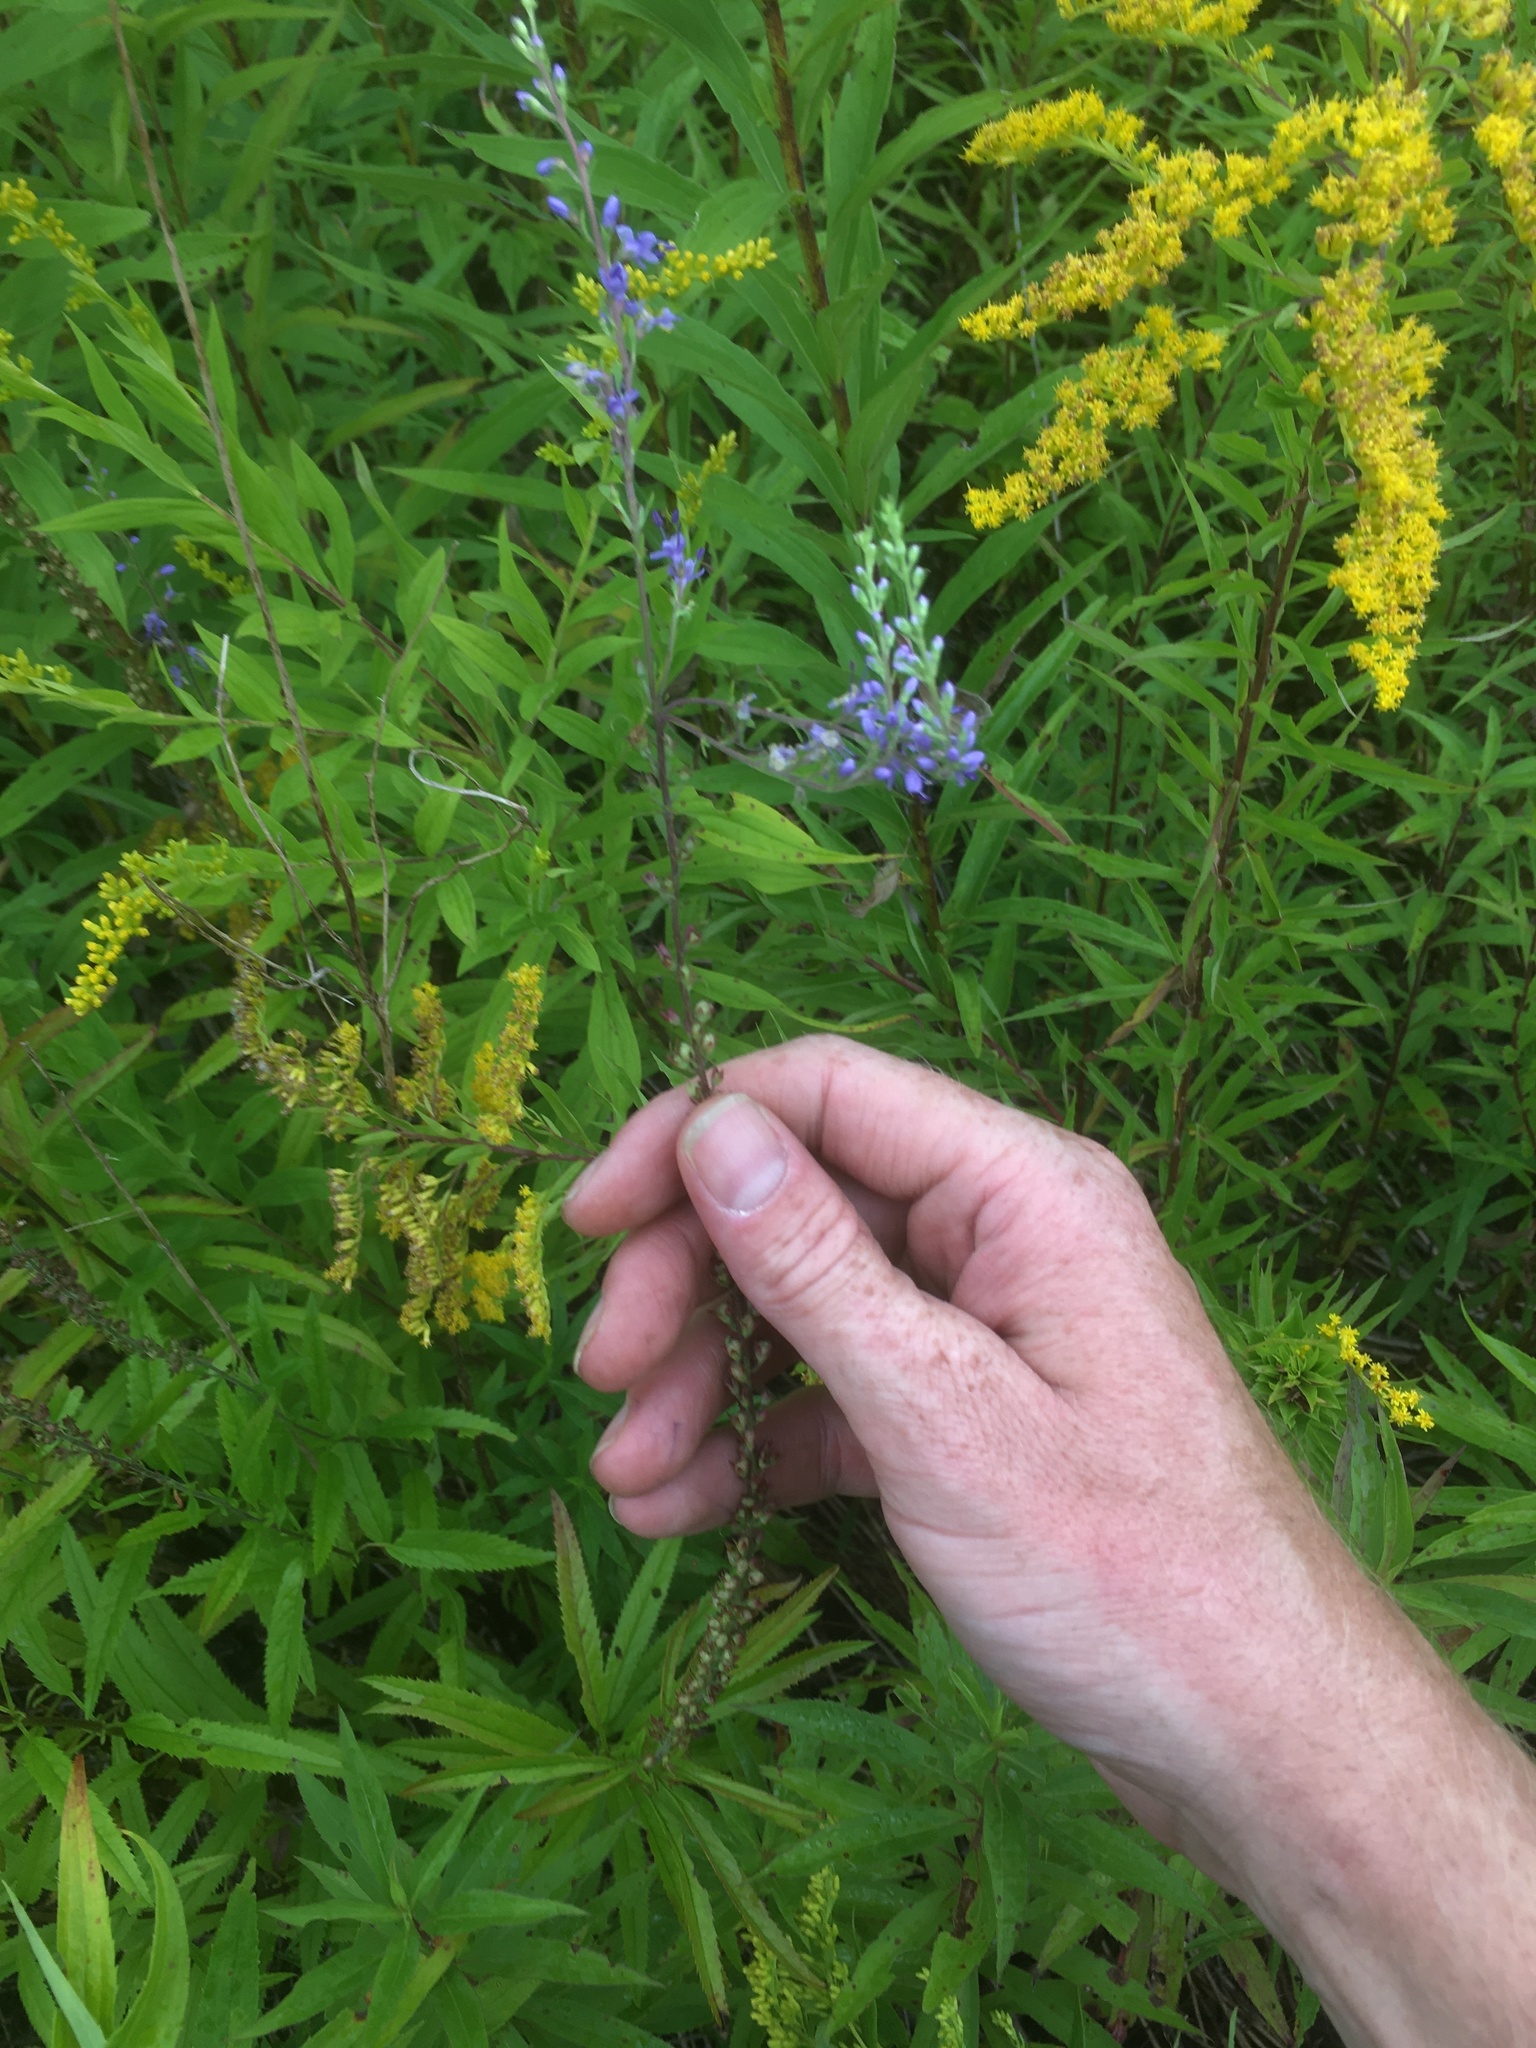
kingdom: Plantae
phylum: Tracheophyta
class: Magnoliopsida
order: Lamiales
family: Plantaginaceae
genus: Veronica
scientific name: Veronica longifolia
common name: Garden speedwell
